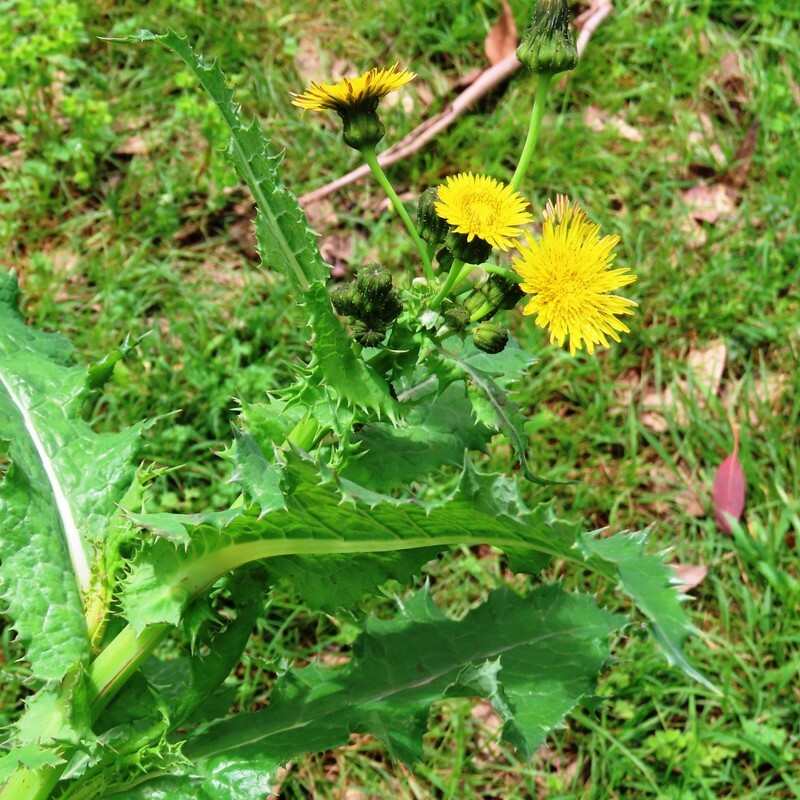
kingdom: Plantae
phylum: Tracheophyta
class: Magnoliopsida
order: Asterales
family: Asteraceae
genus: Sonchus
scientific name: Sonchus asper
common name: Prickly sow-thistle
